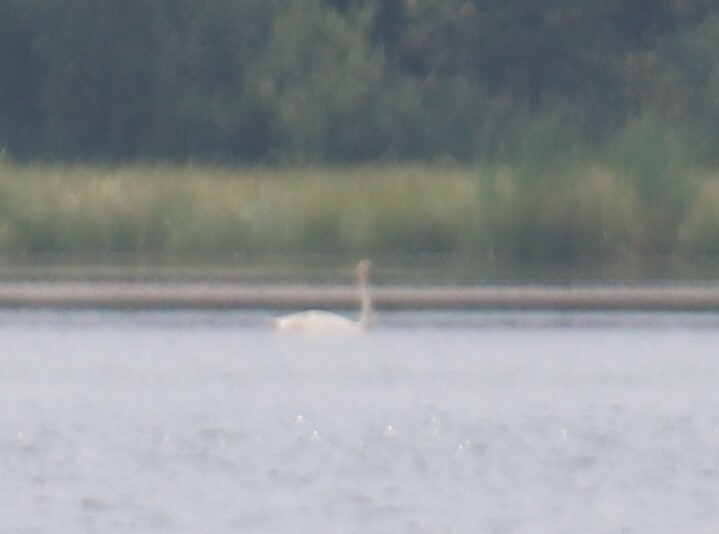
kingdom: Animalia
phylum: Chordata
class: Aves
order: Anseriformes
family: Anatidae
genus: Cygnus
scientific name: Cygnus buccinator
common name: Trumpeter swan
